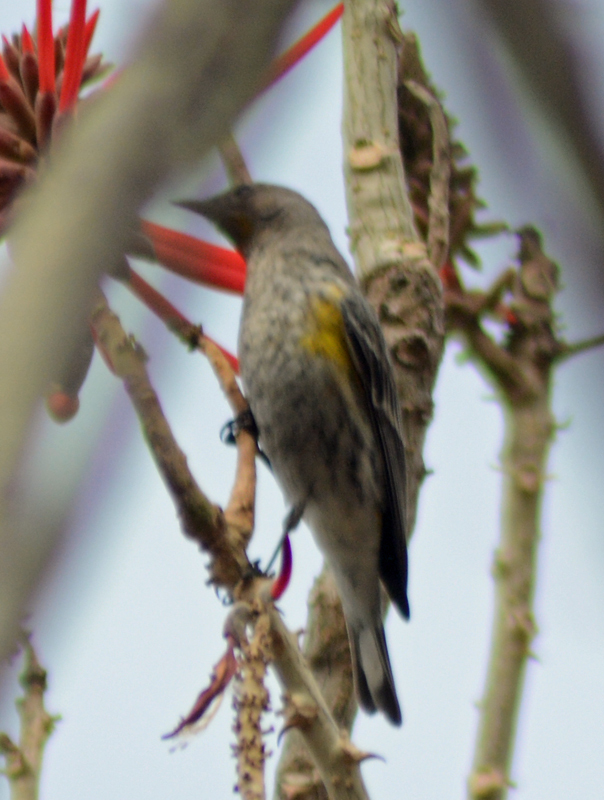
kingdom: Animalia
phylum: Chordata
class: Aves
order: Passeriformes
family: Parulidae
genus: Setophaga
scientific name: Setophaga coronata
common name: Myrtle warbler
